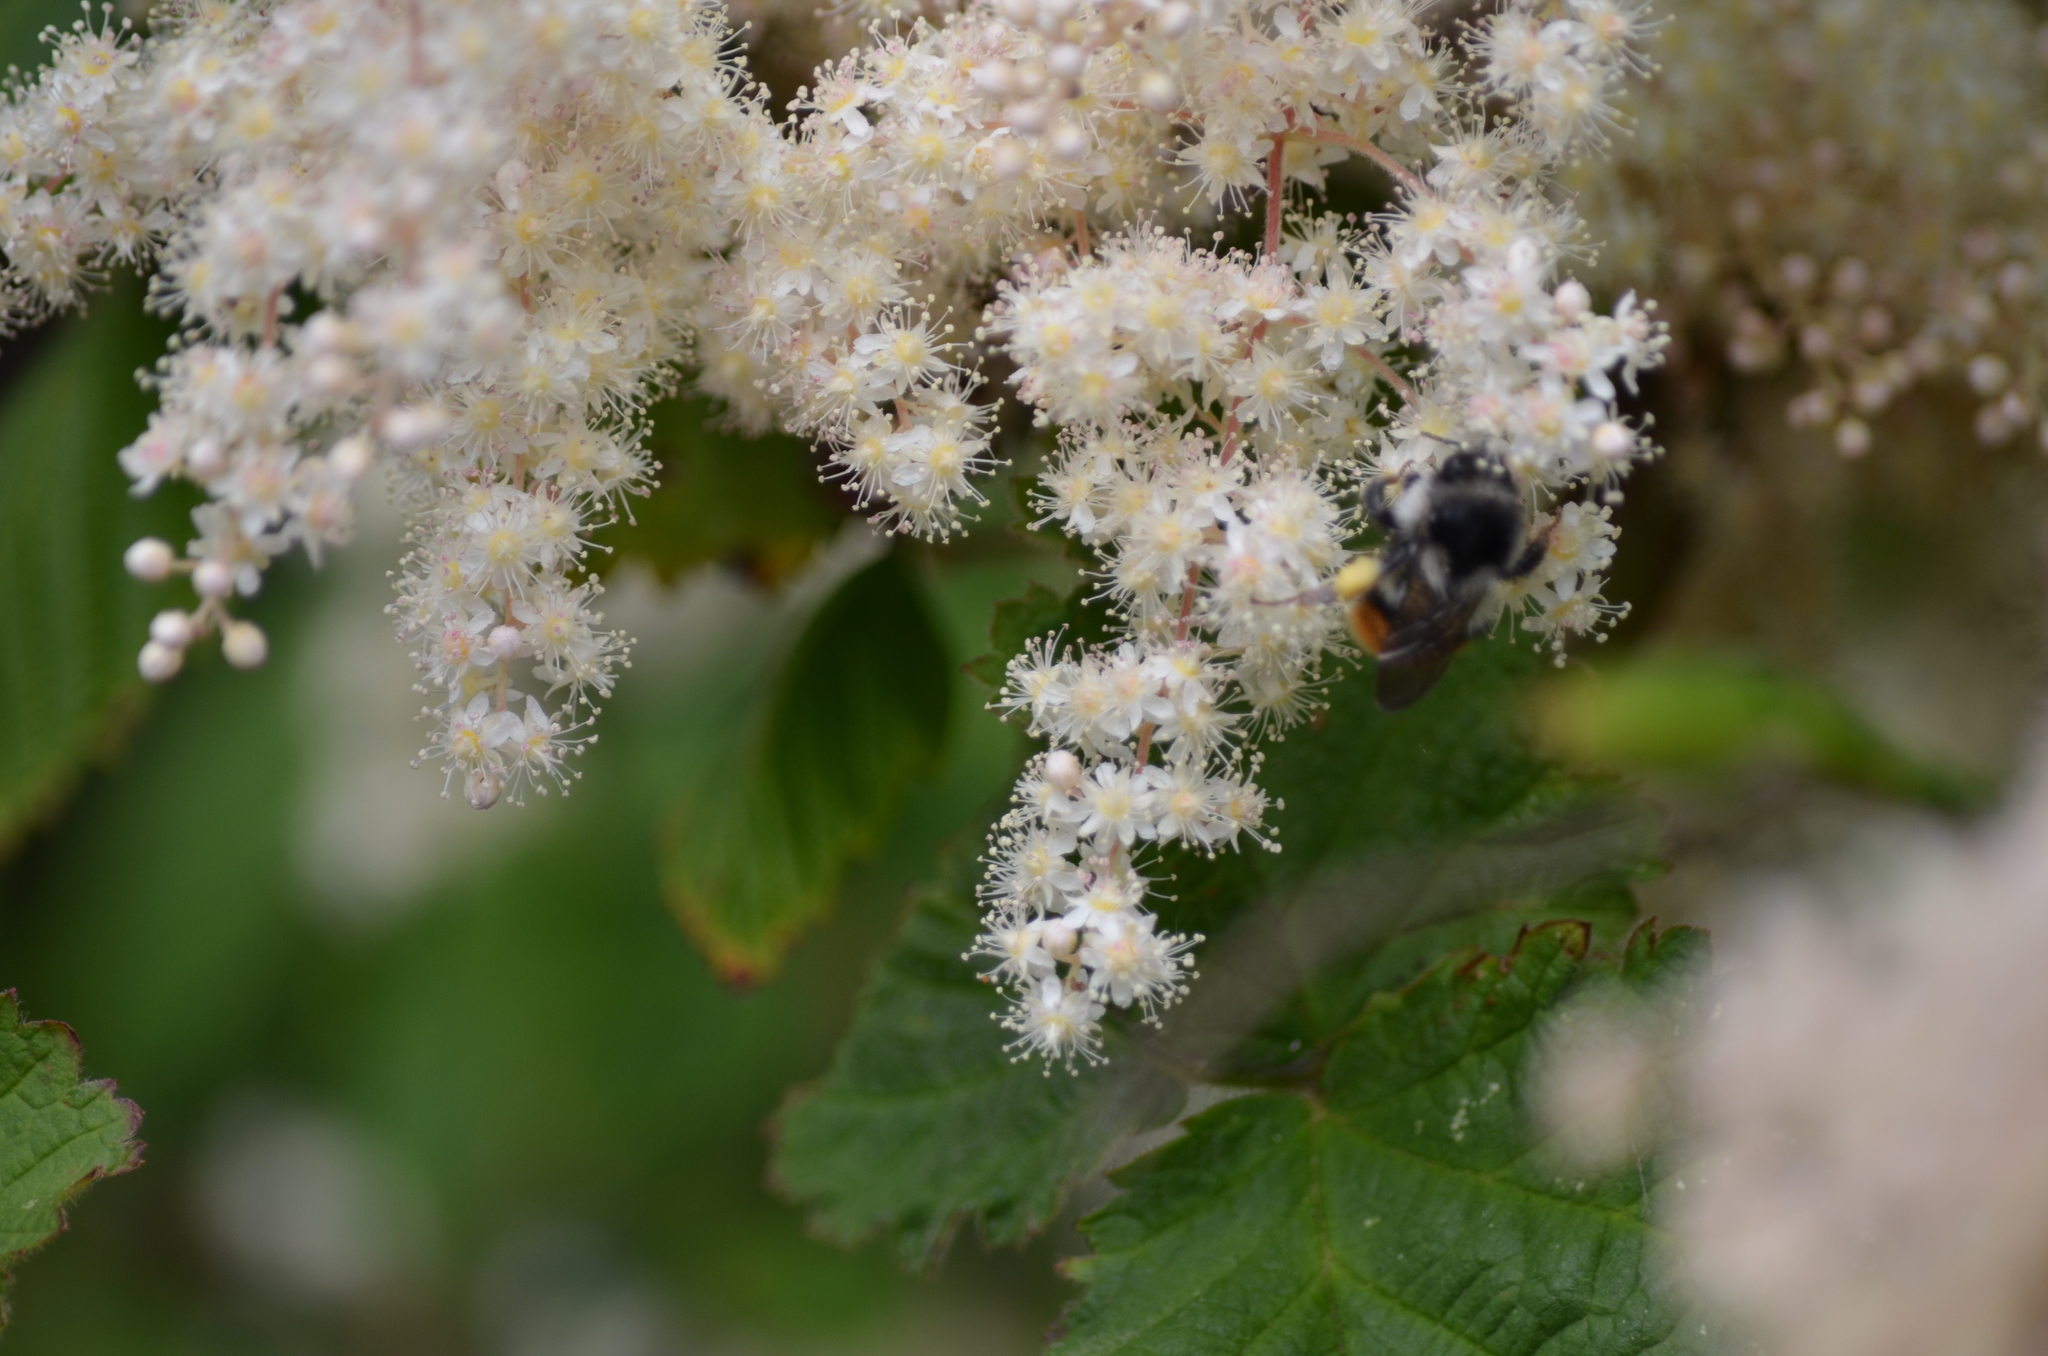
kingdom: Animalia
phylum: Arthropoda
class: Insecta
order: Hymenoptera
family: Apidae
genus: Bombus
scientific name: Bombus vancouverensis
